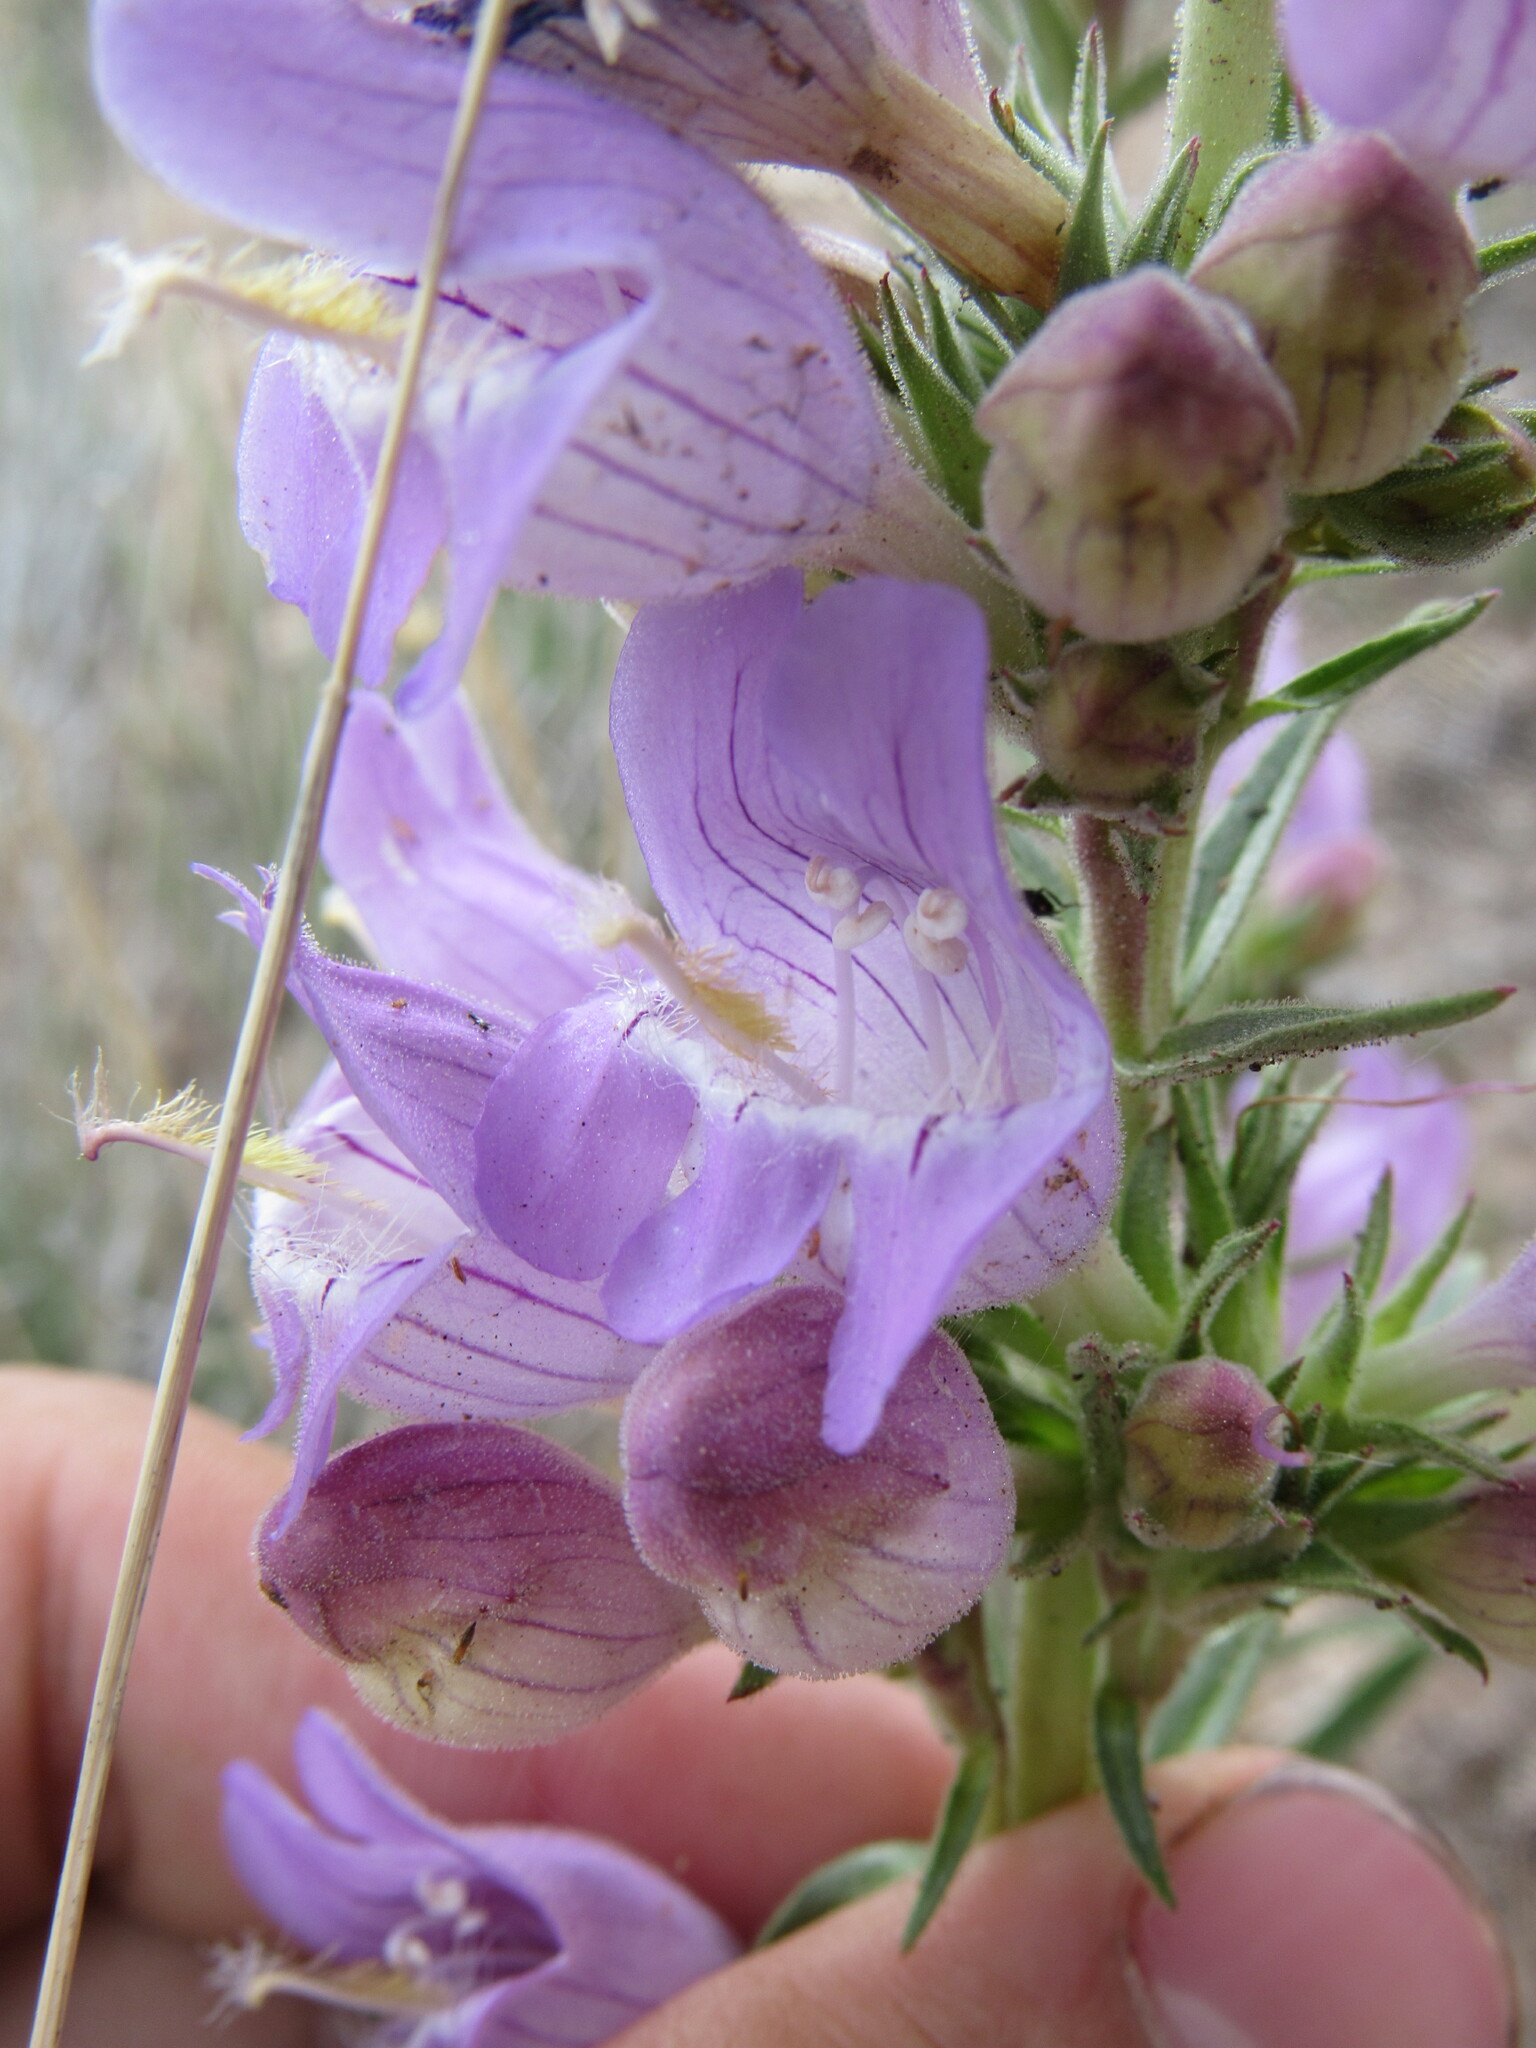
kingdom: Plantae
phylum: Tracheophyta
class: Magnoliopsida
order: Lamiales
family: Plantaginaceae
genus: Penstemon
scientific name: Penstemon jamesii
